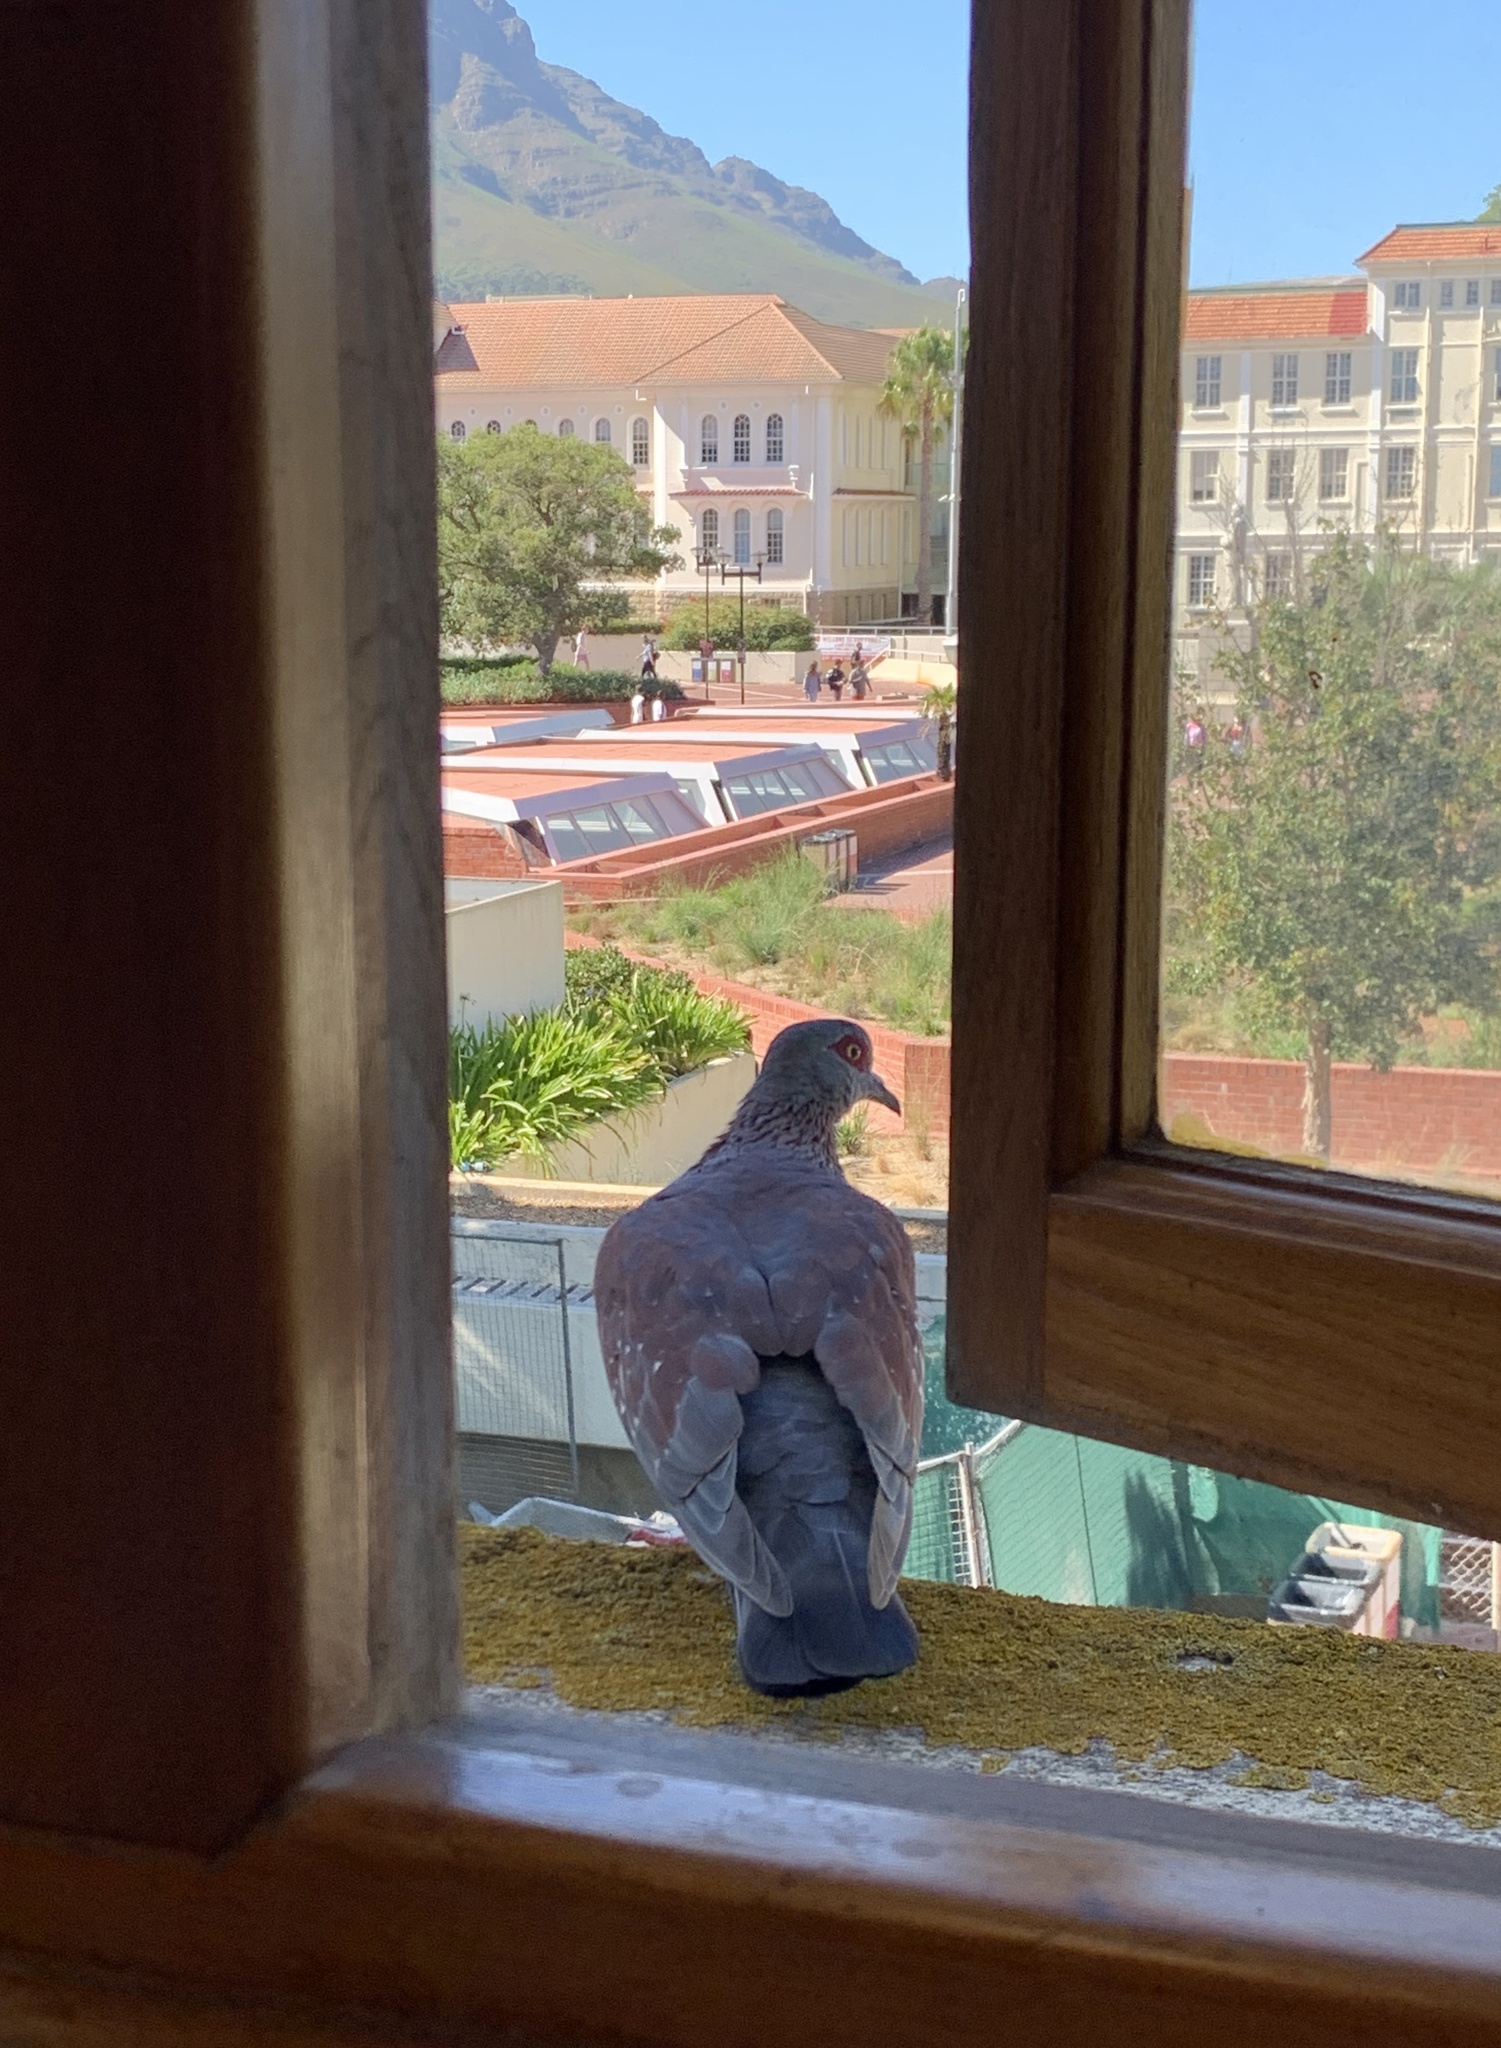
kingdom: Animalia
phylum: Chordata
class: Aves
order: Columbiformes
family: Columbidae
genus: Columba
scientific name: Columba guinea
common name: Speckled pigeon
